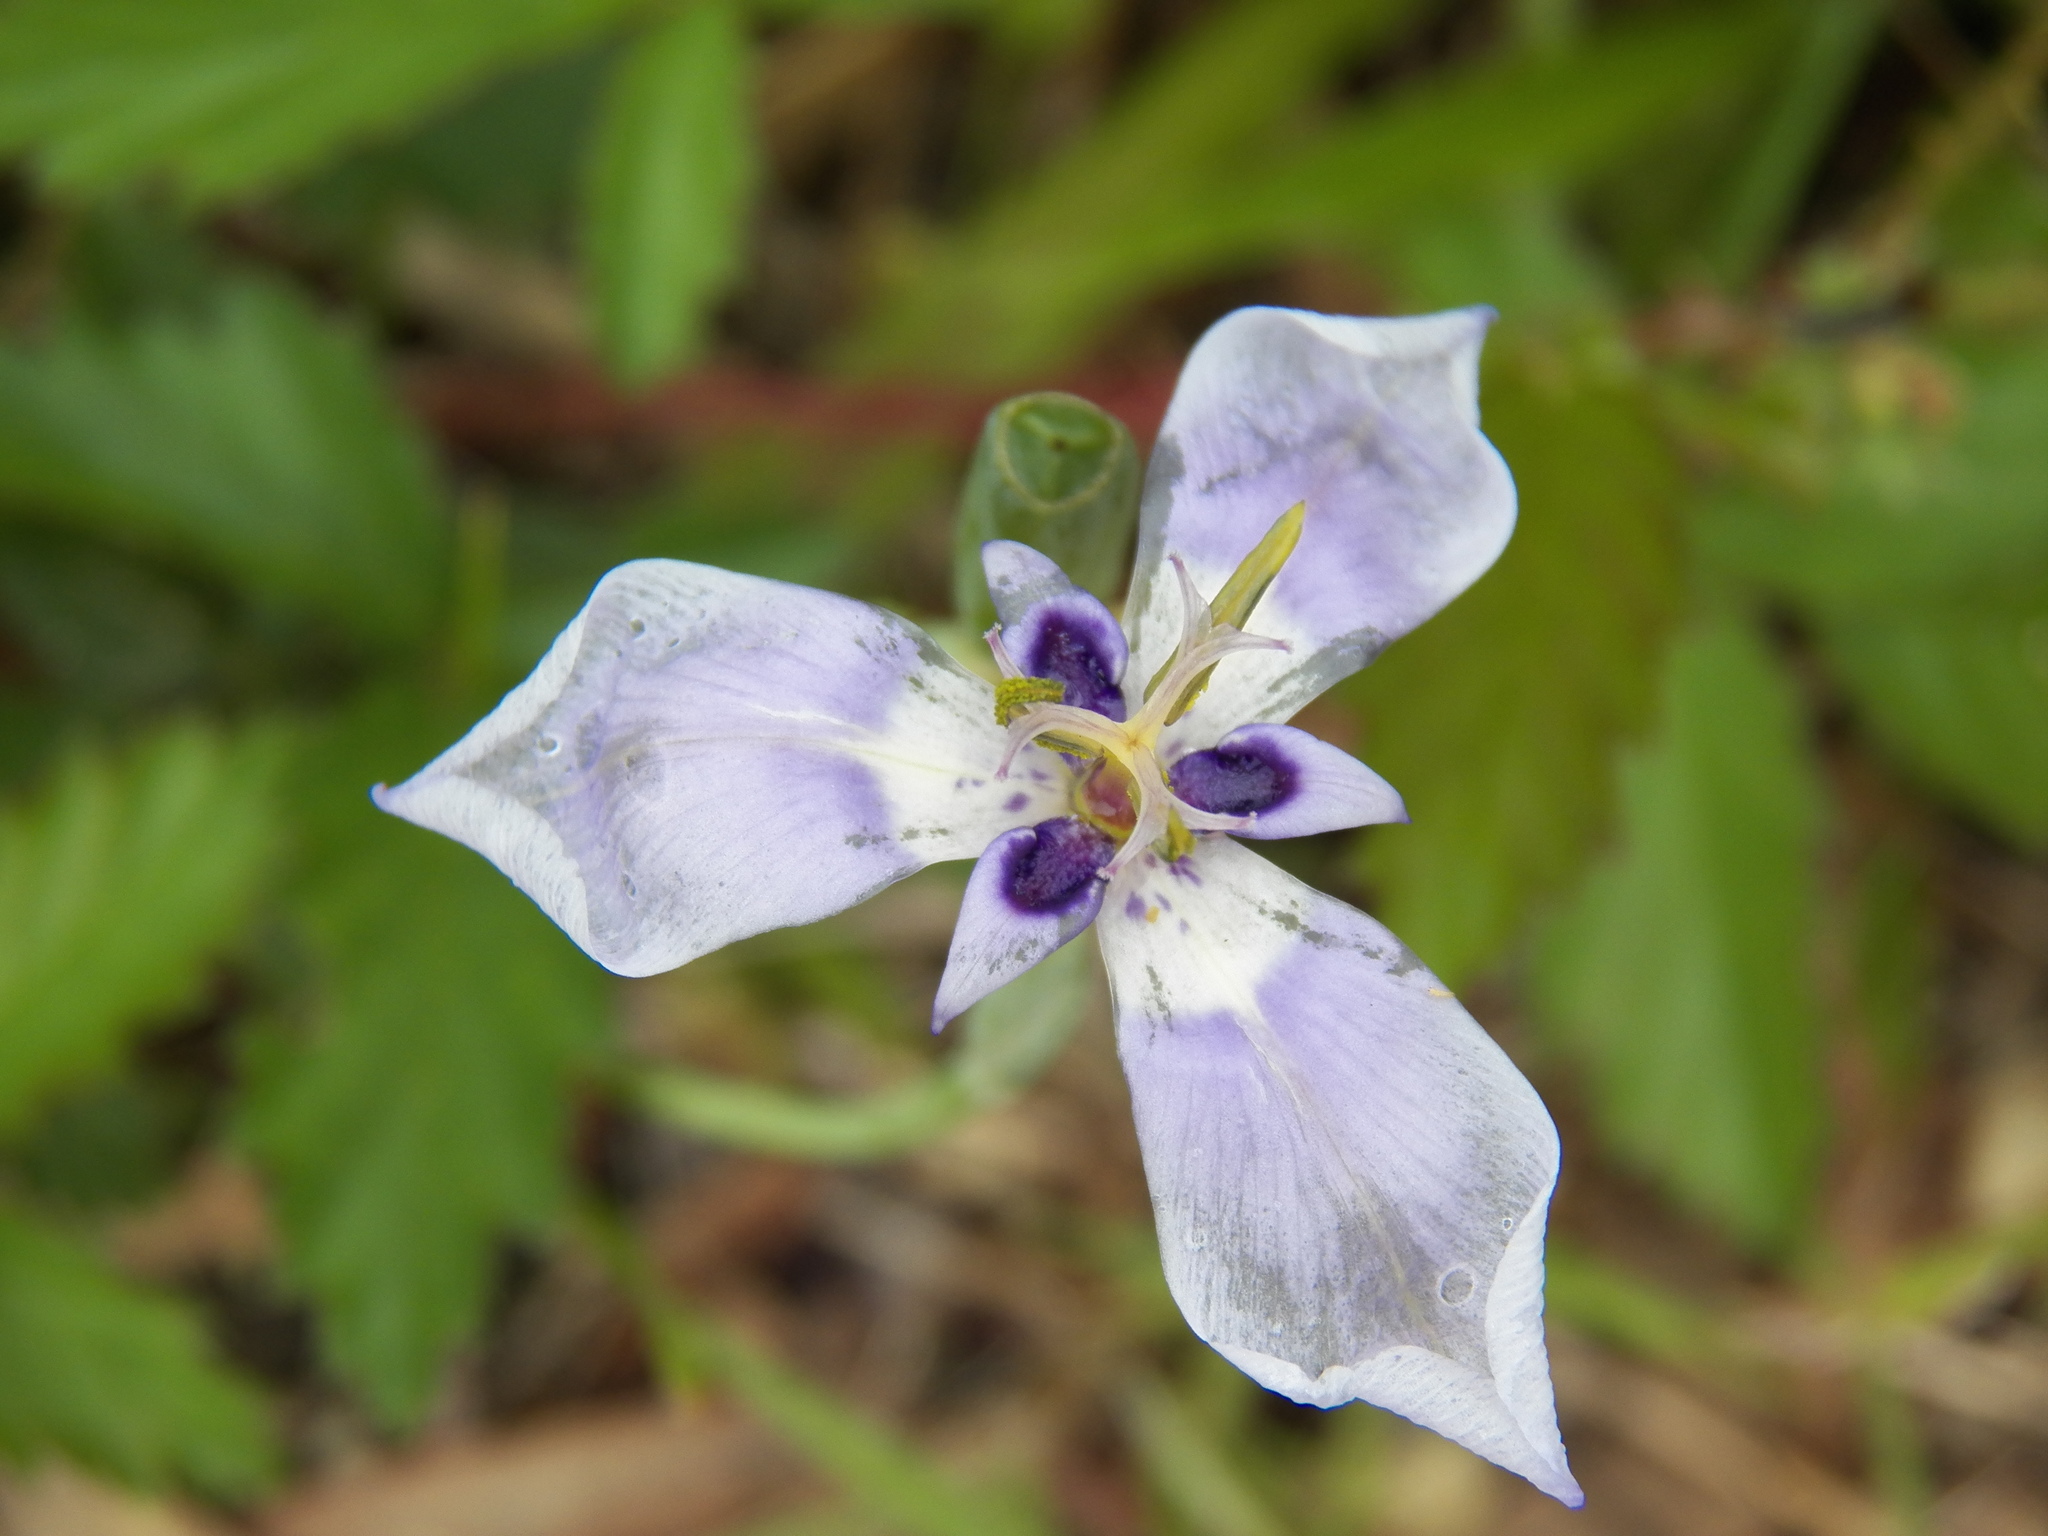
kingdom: Plantae
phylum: Tracheophyta
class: Liliopsida
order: Asparagales
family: Iridaceae
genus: Herbertia
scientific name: Herbertia lahue
